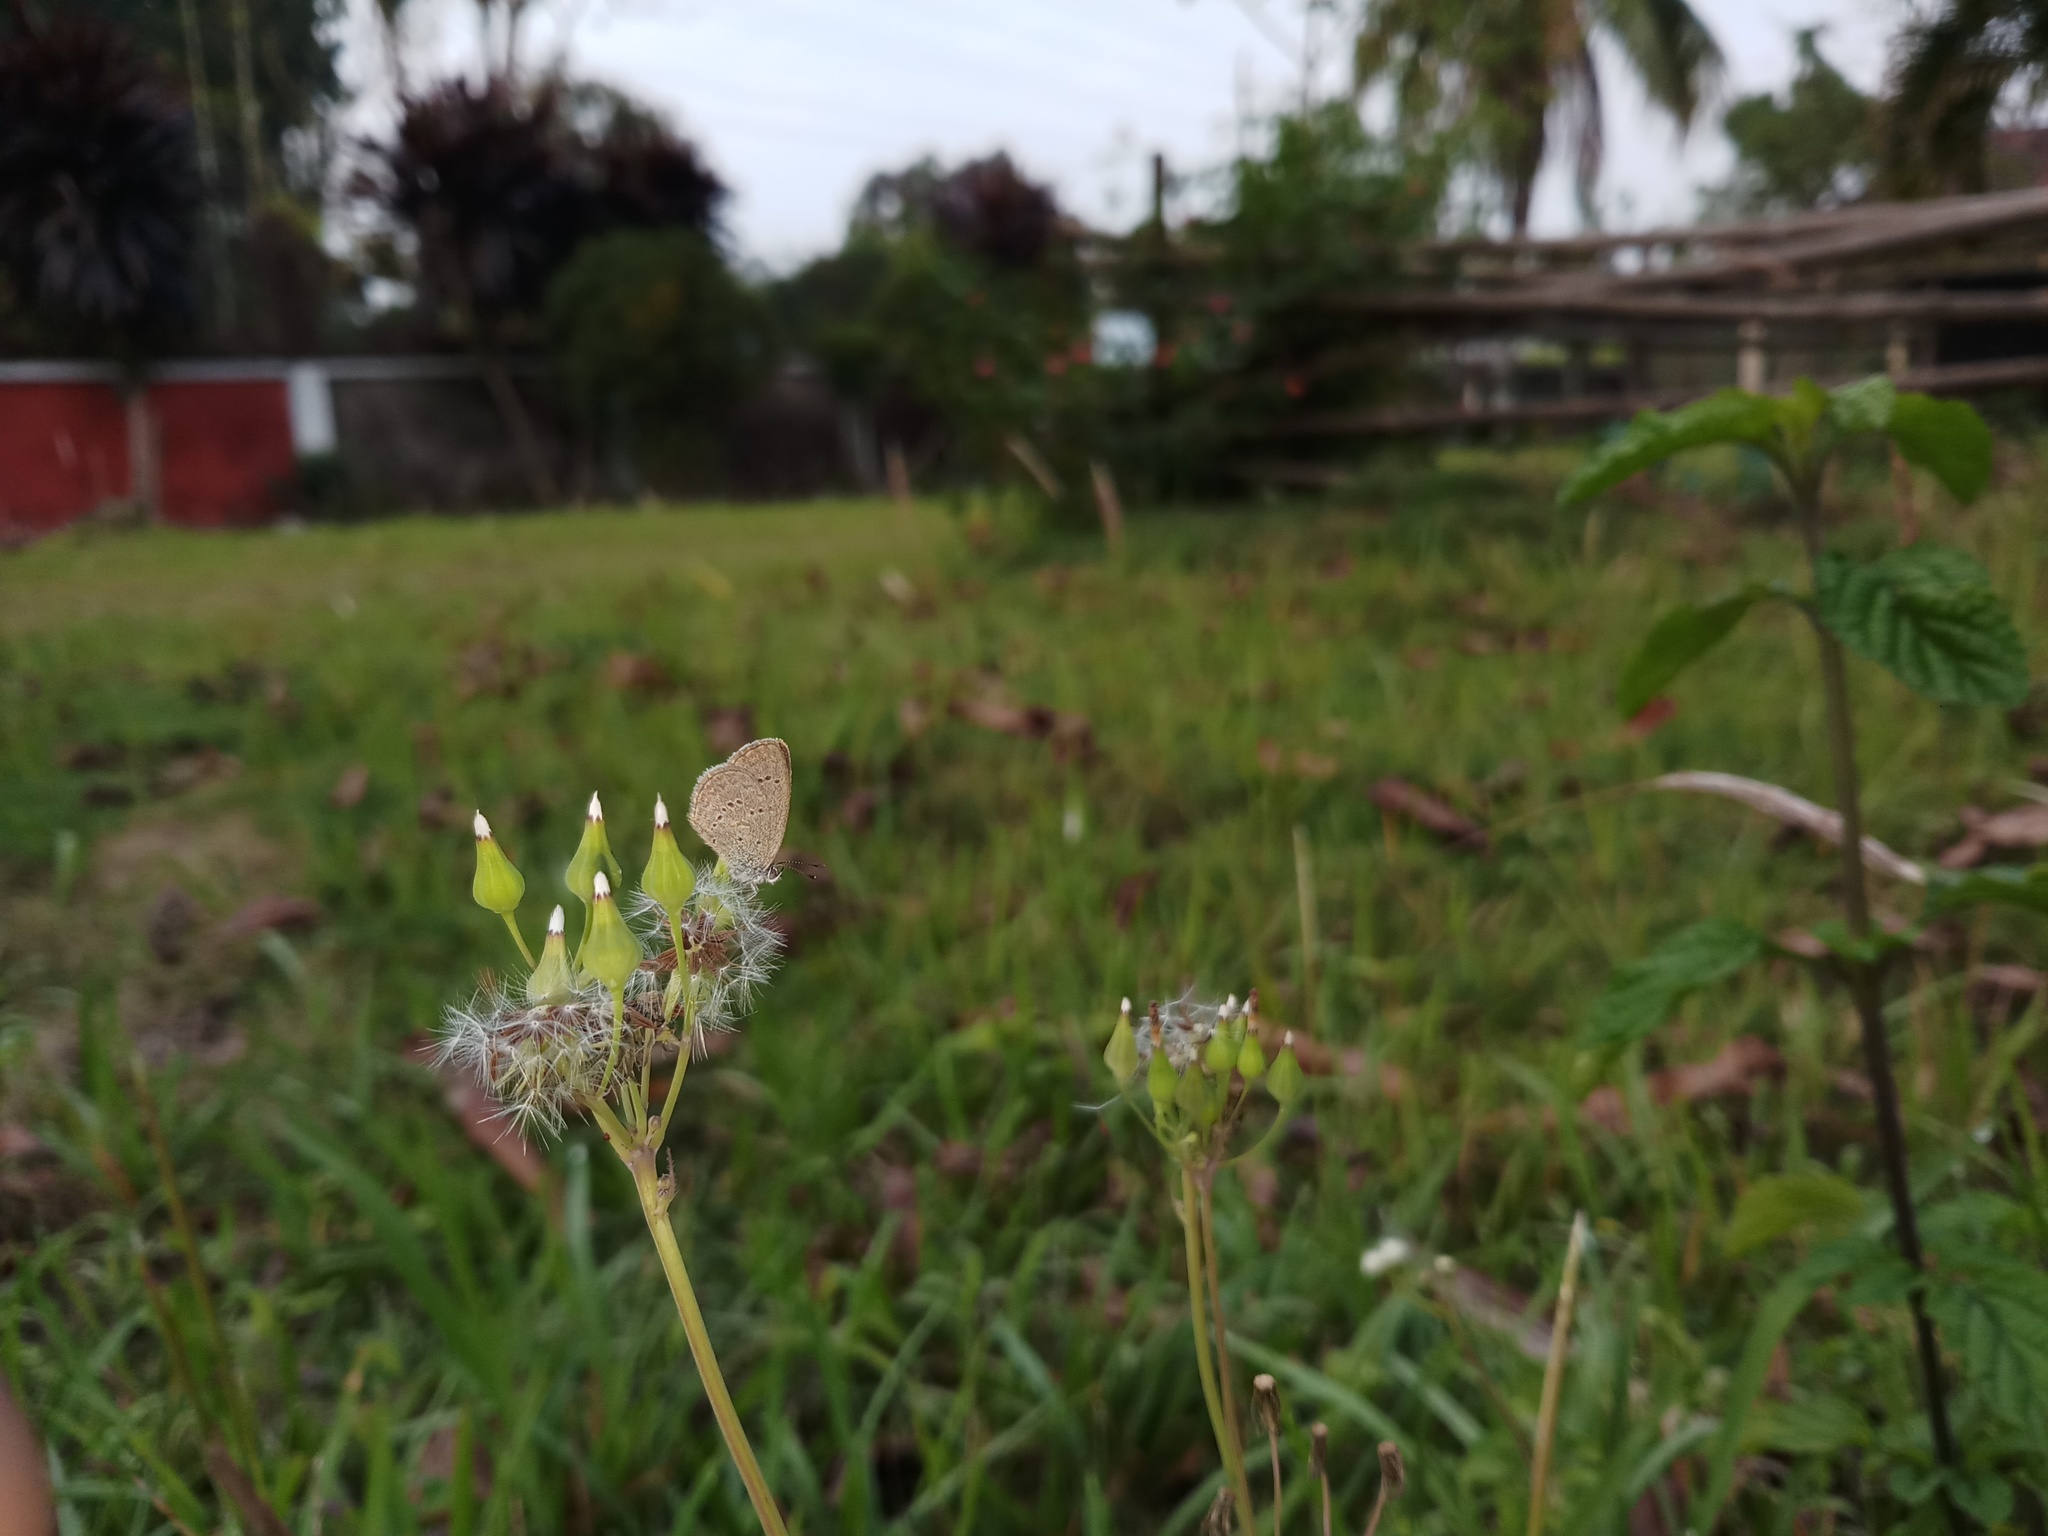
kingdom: Animalia
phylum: Arthropoda
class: Insecta
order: Lepidoptera
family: Lycaenidae
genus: Zizina
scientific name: Zizina otis
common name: Lesser grass blue
